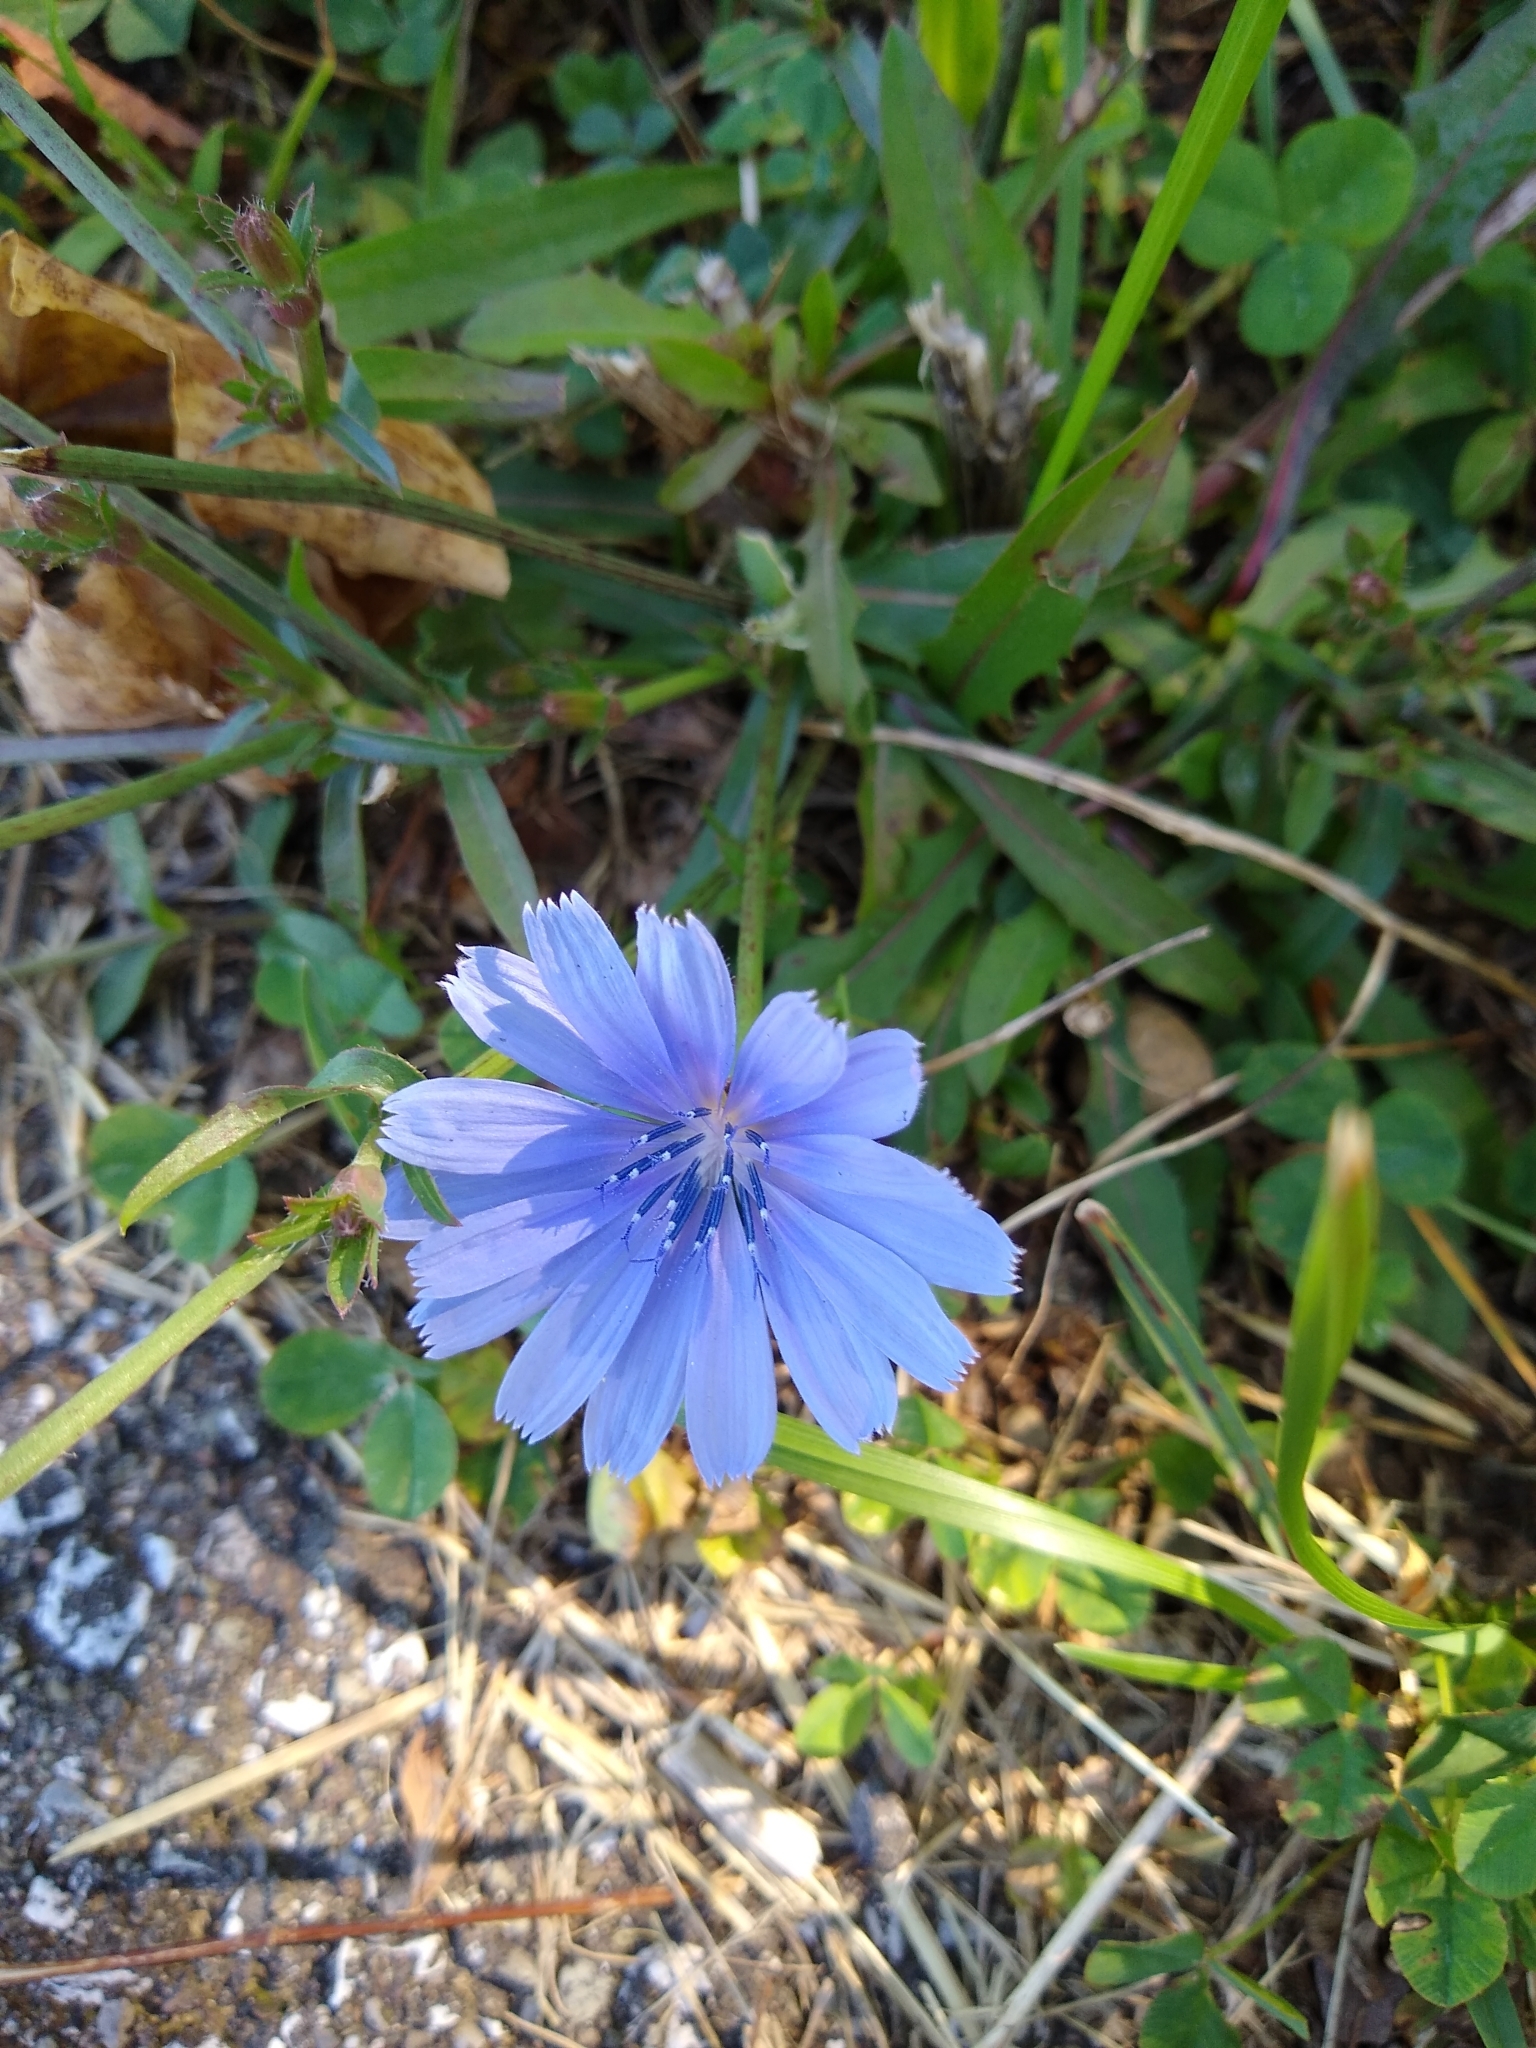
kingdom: Plantae
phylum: Tracheophyta
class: Magnoliopsida
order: Asterales
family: Asteraceae
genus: Cichorium
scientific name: Cichorium intybus
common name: Chicory
